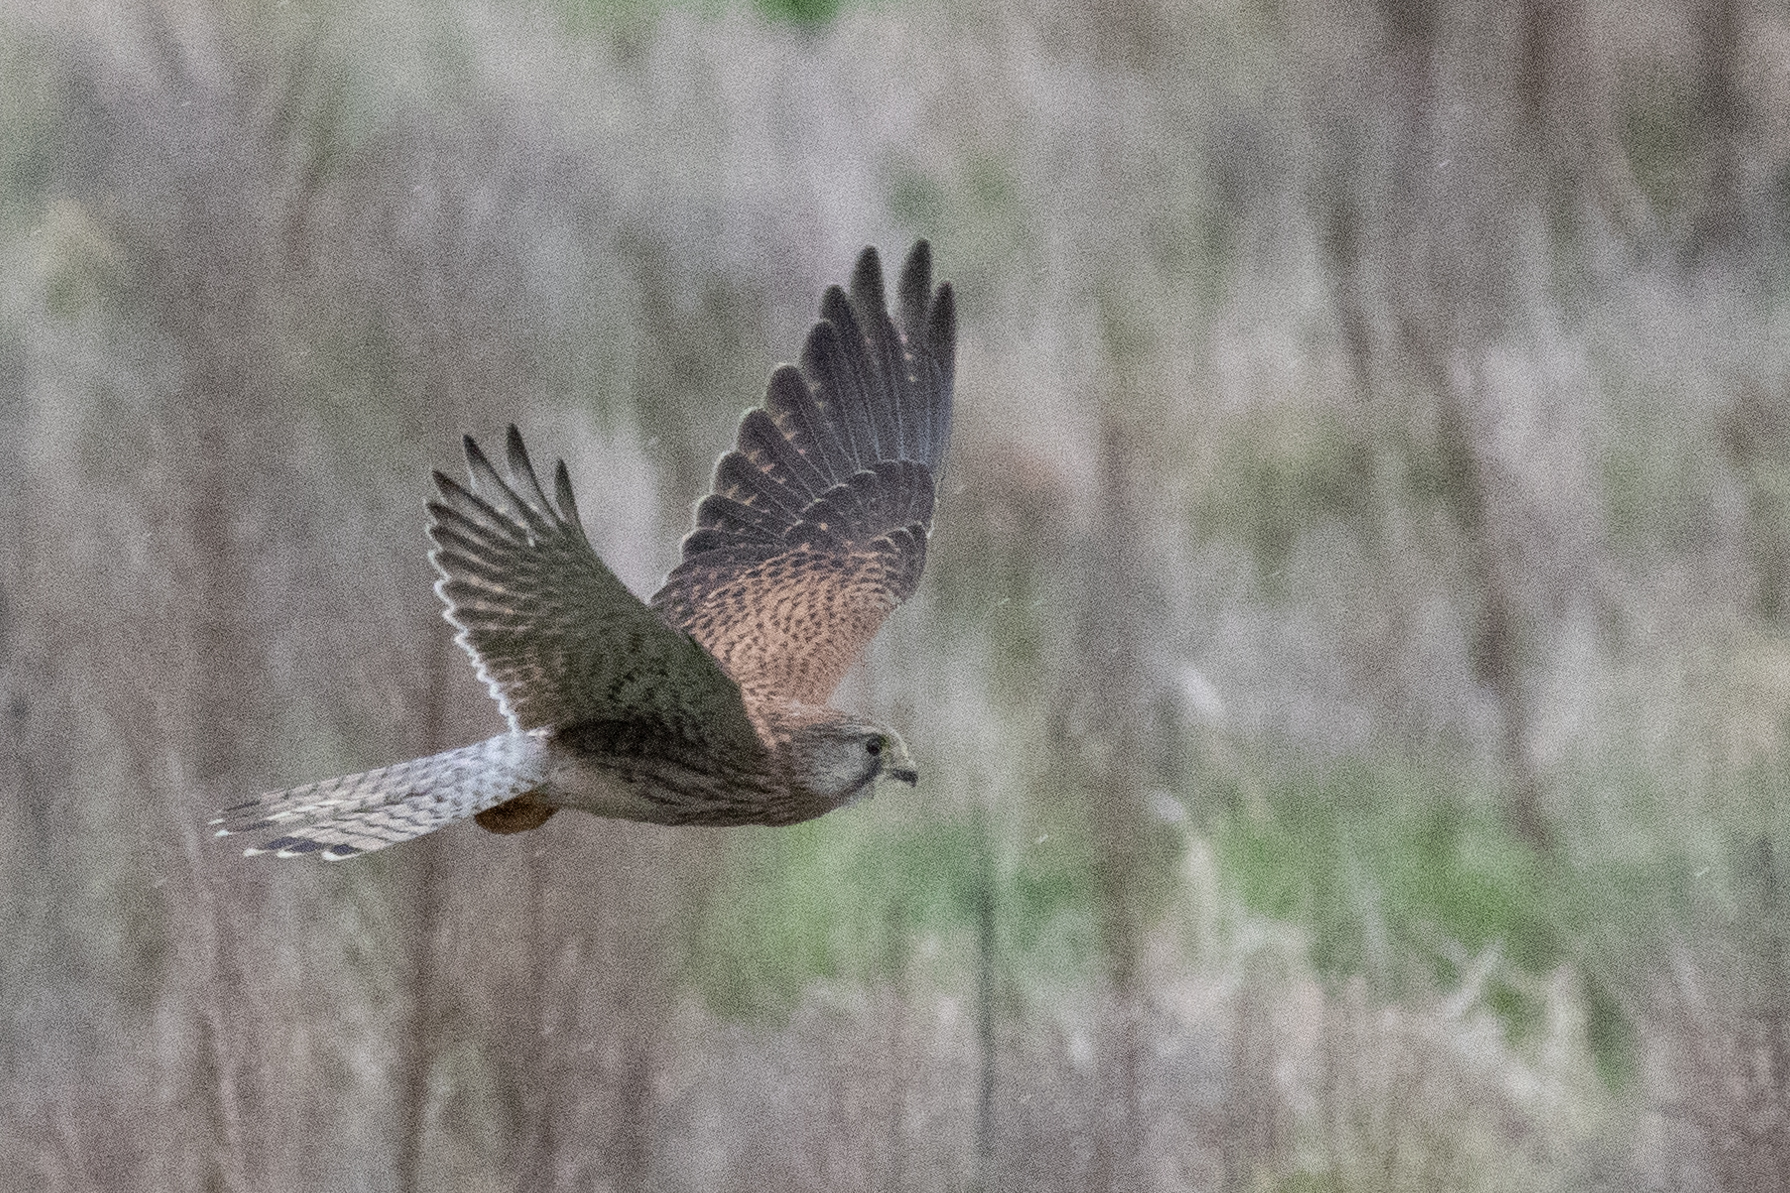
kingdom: Animalia
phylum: Chordata
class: Aves
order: Falconiformes
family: Falconidae
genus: Falco
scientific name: Falco tinnunculus
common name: Common kestrel
